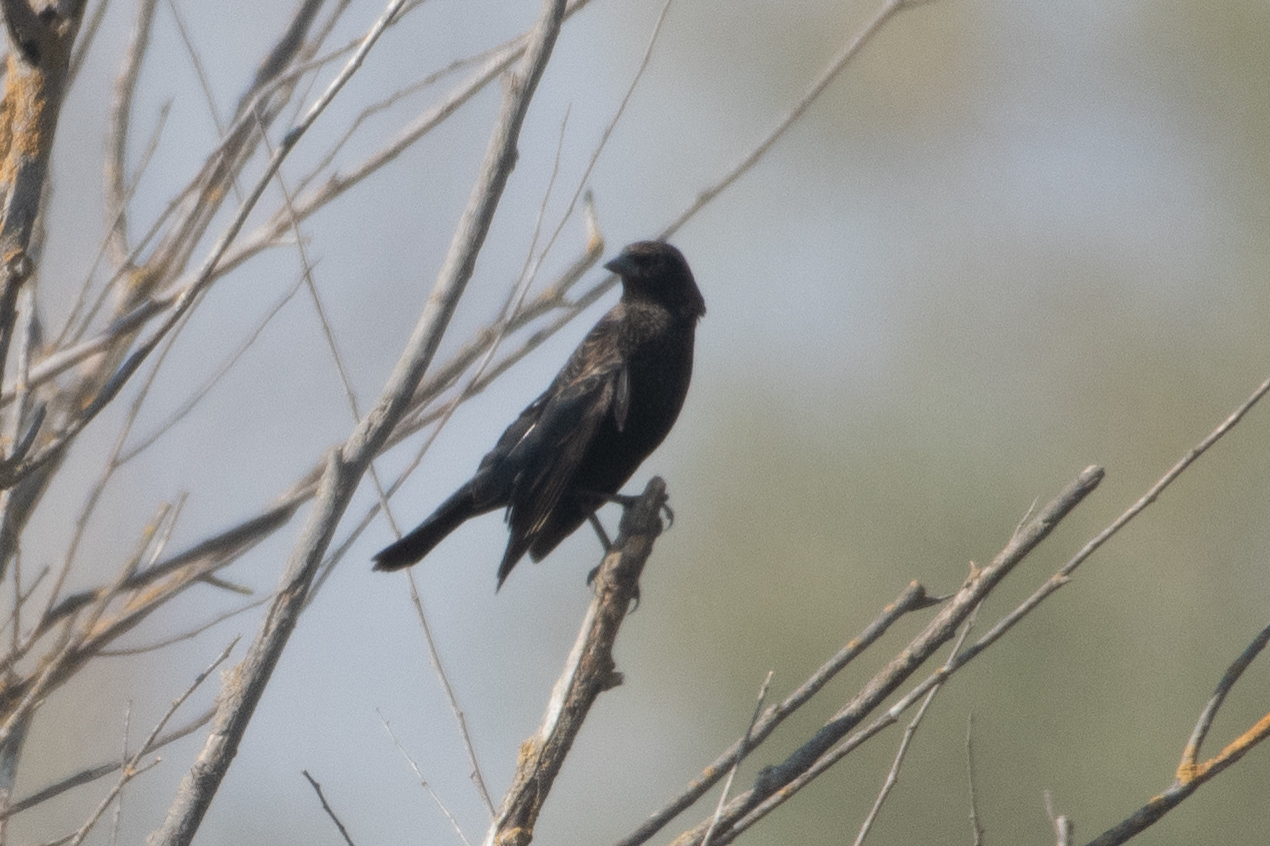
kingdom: Animalia
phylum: Chordata
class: Aves
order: Passeriformes
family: Icteridae
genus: Agelaius
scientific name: Agelaius phoeniceus
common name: Red-winged blackbird
